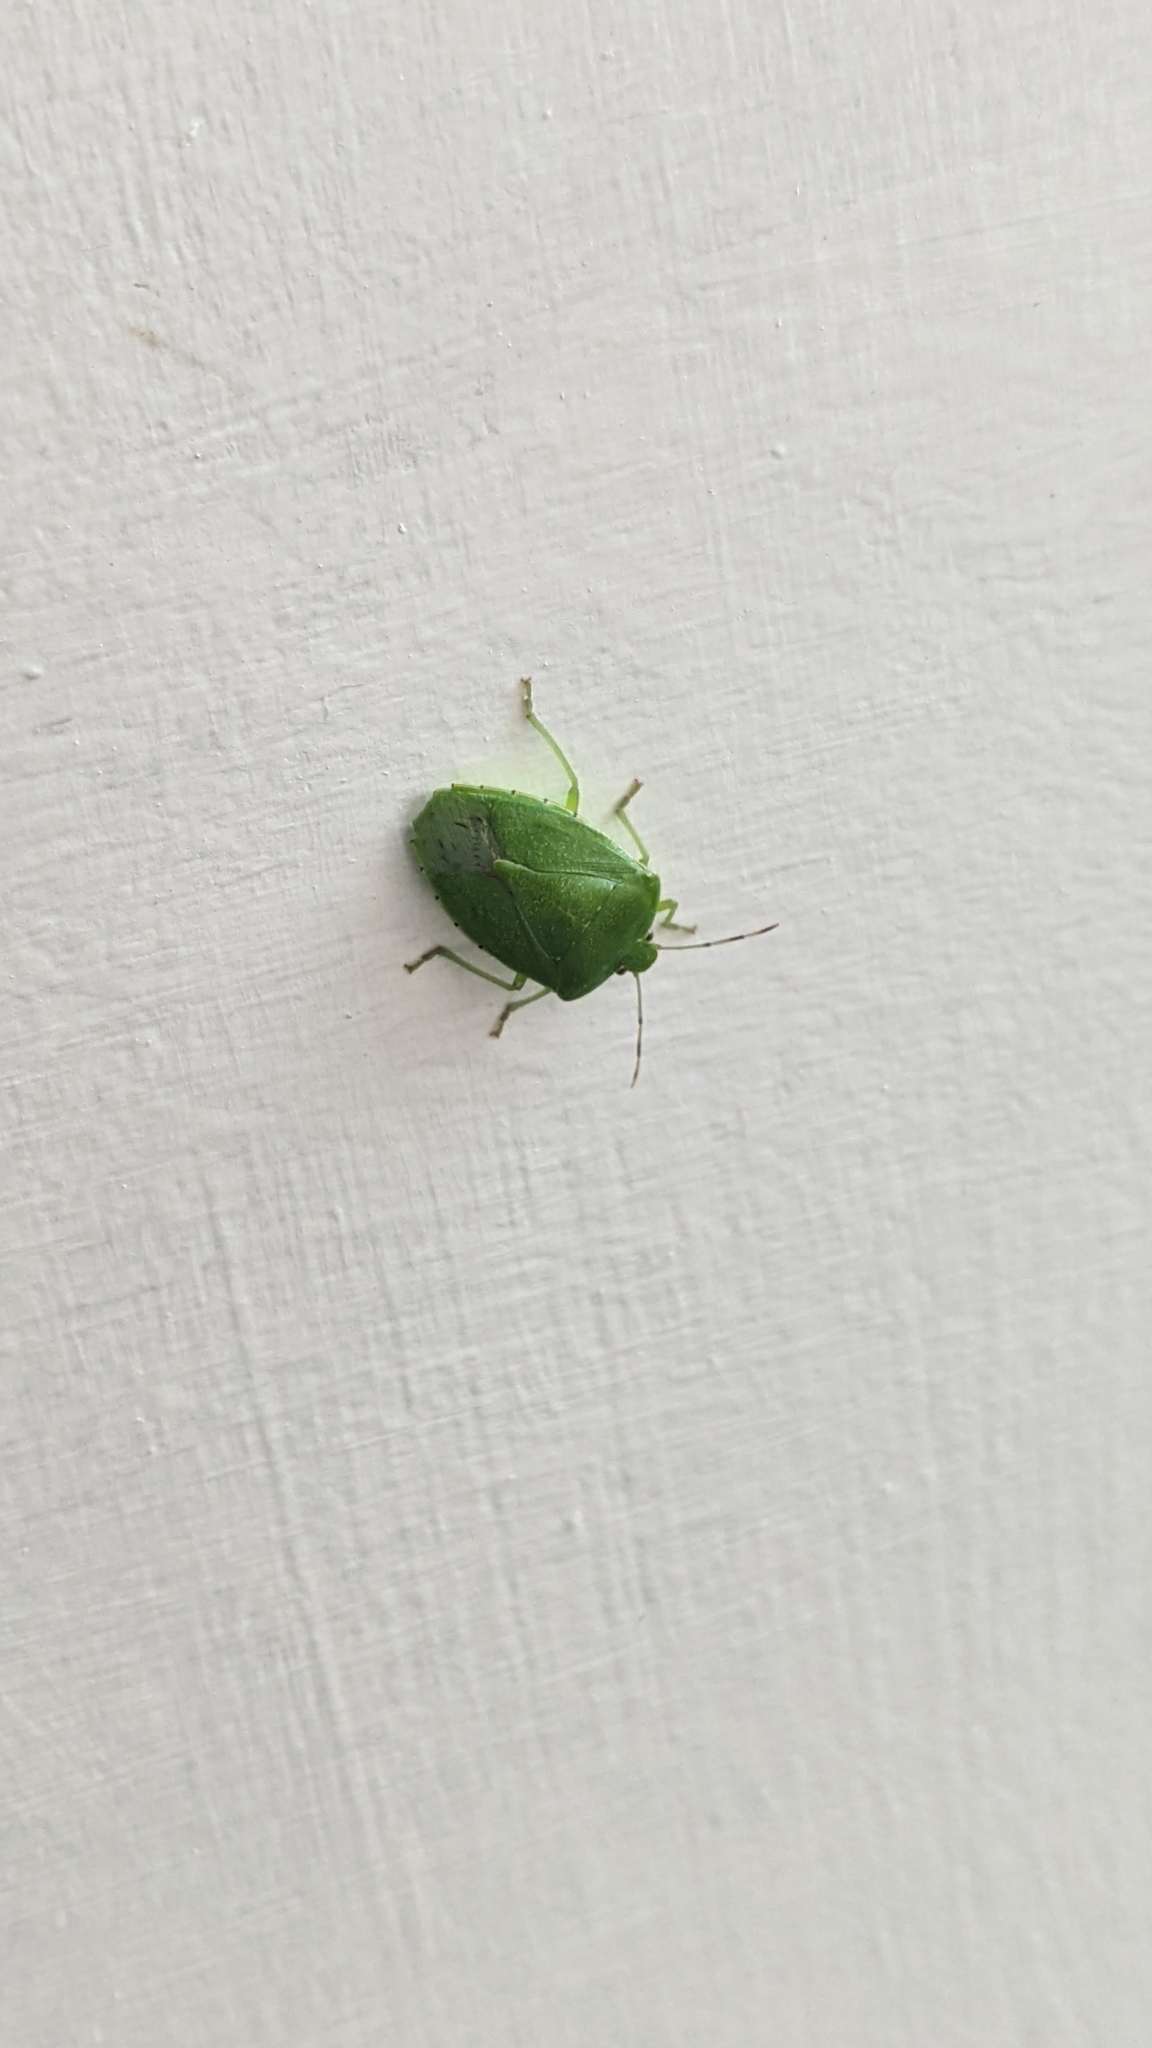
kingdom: Animalia
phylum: Arthropoda
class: Insecta
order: Hemiptera
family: Pentatomidae
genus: Chinavia
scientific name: Chinavia hilaris
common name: Green stink bug
